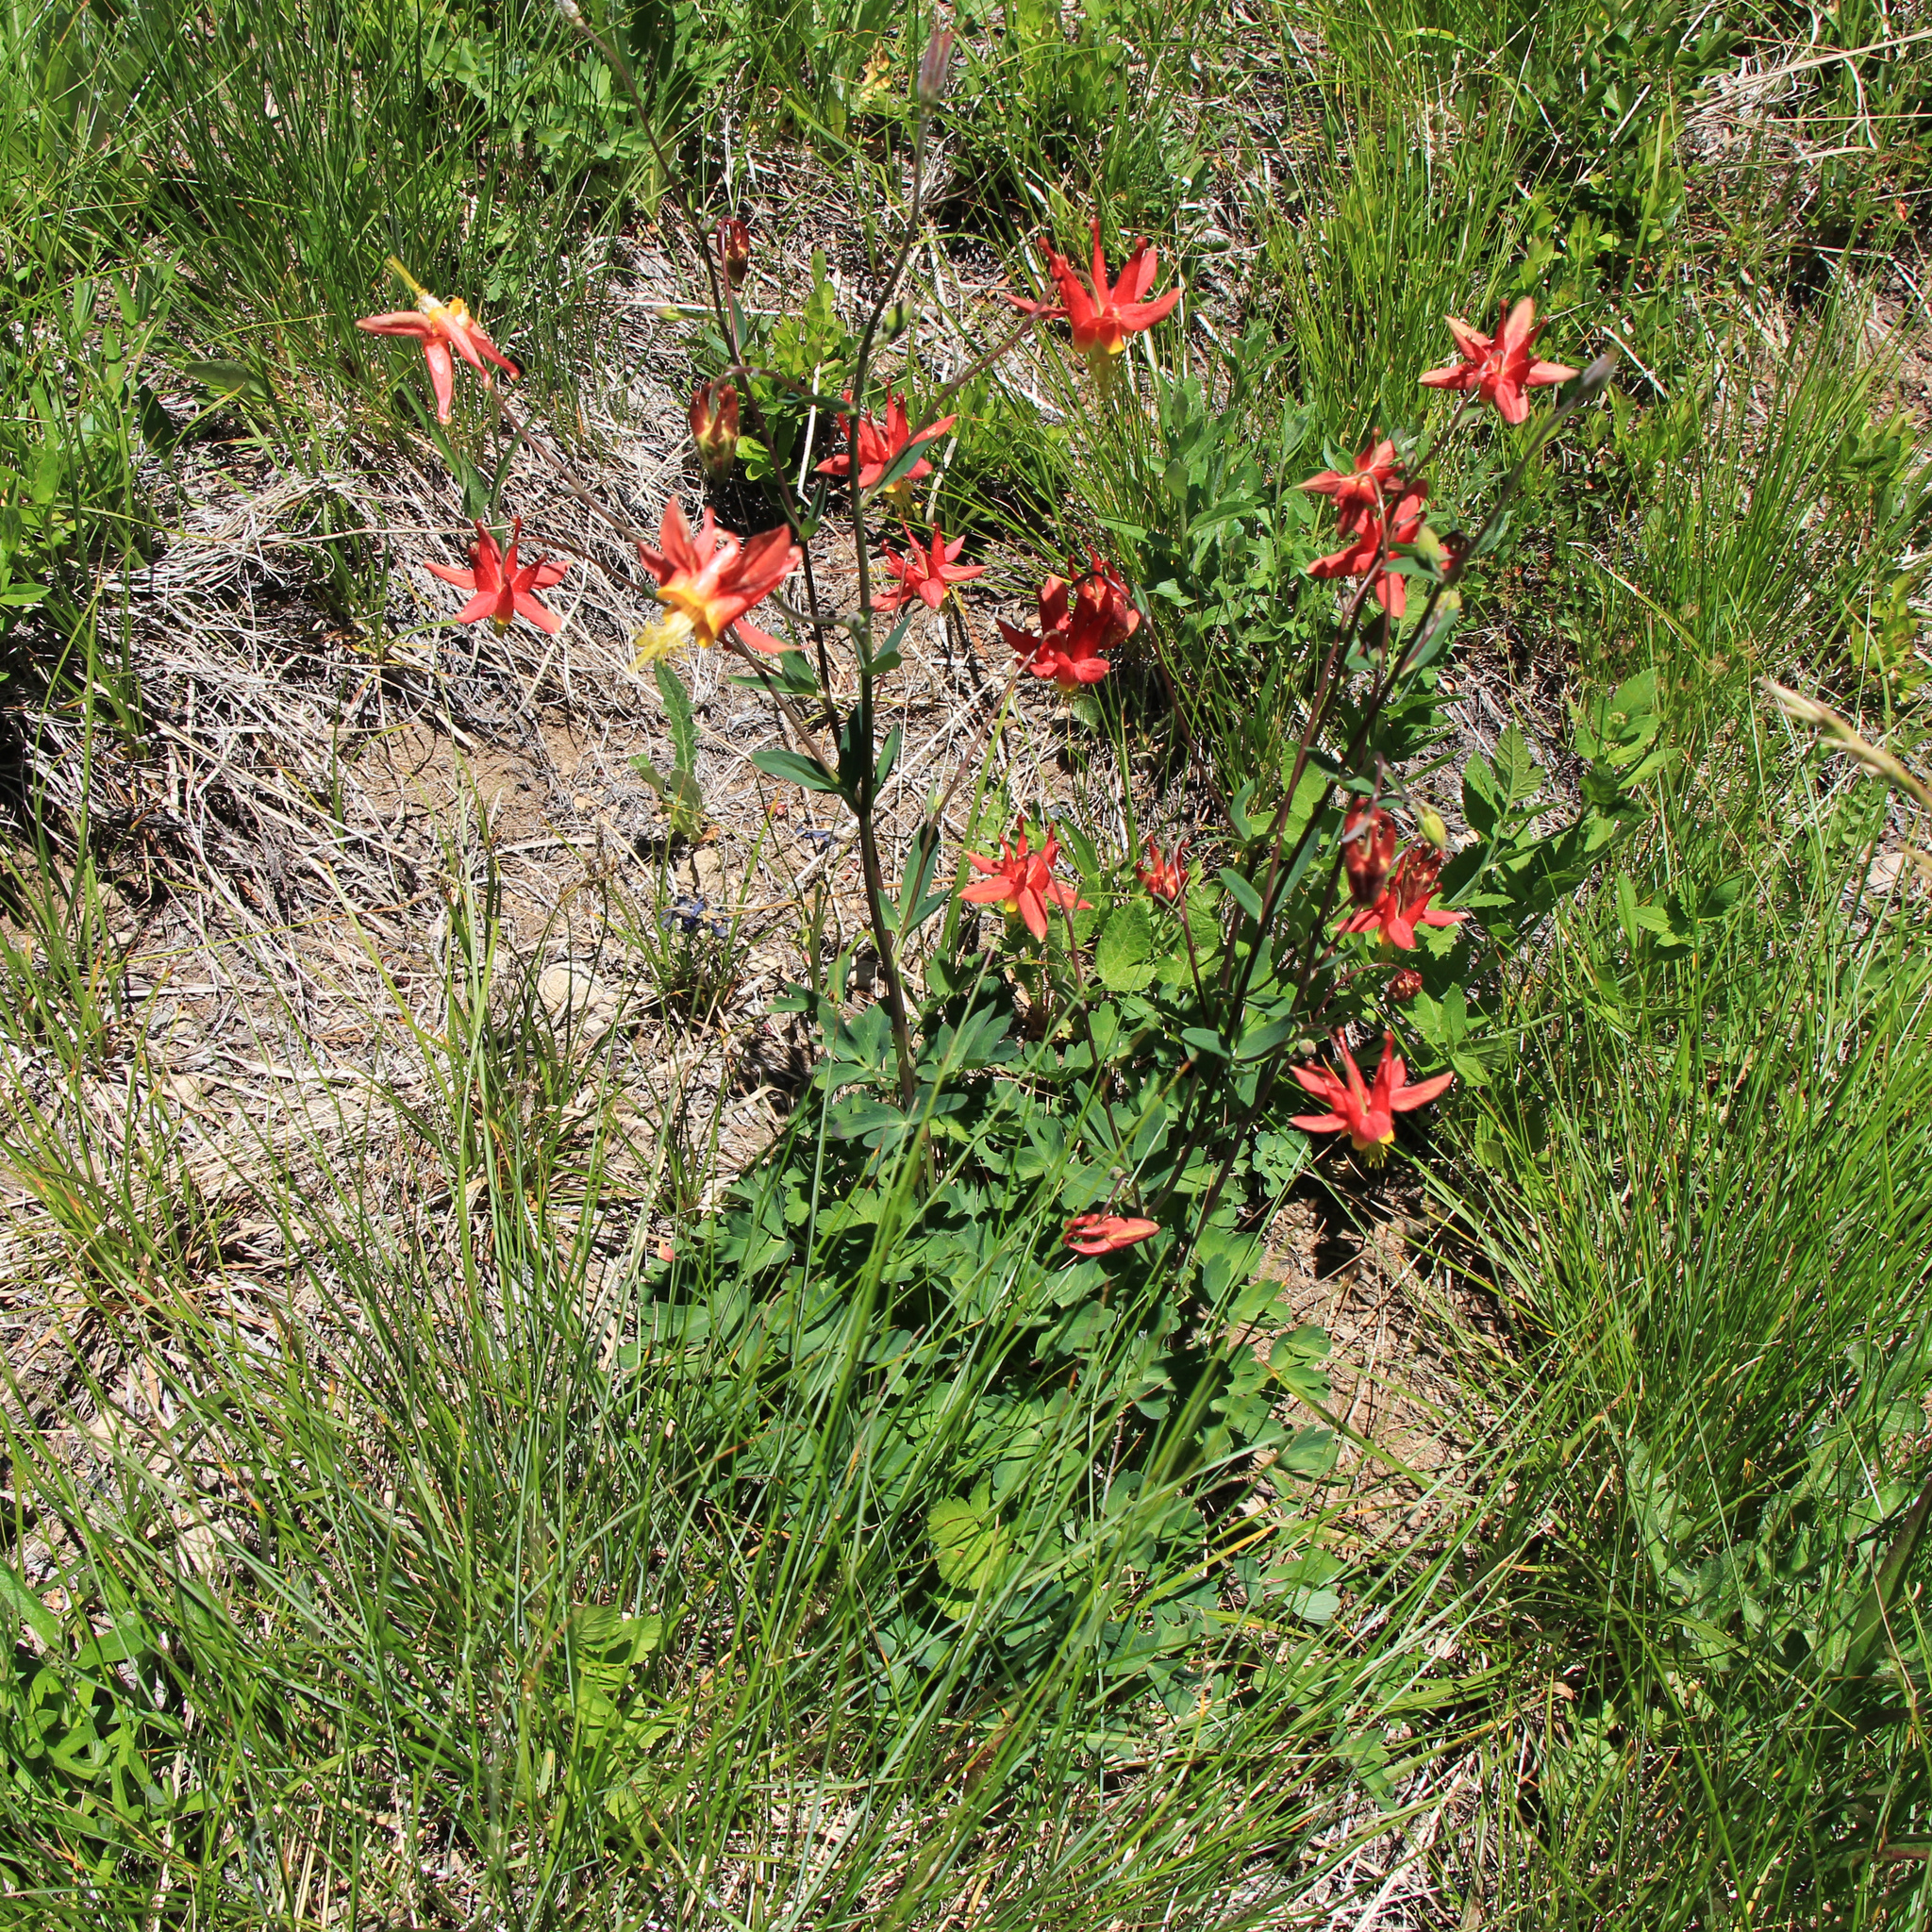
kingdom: Plantae
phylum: Tracheophyta
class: Magnoliopsida
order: Ranunculales
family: Ranunculaceae
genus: Aquilegia
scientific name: Aquilegia formosa
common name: Sitka columbine
